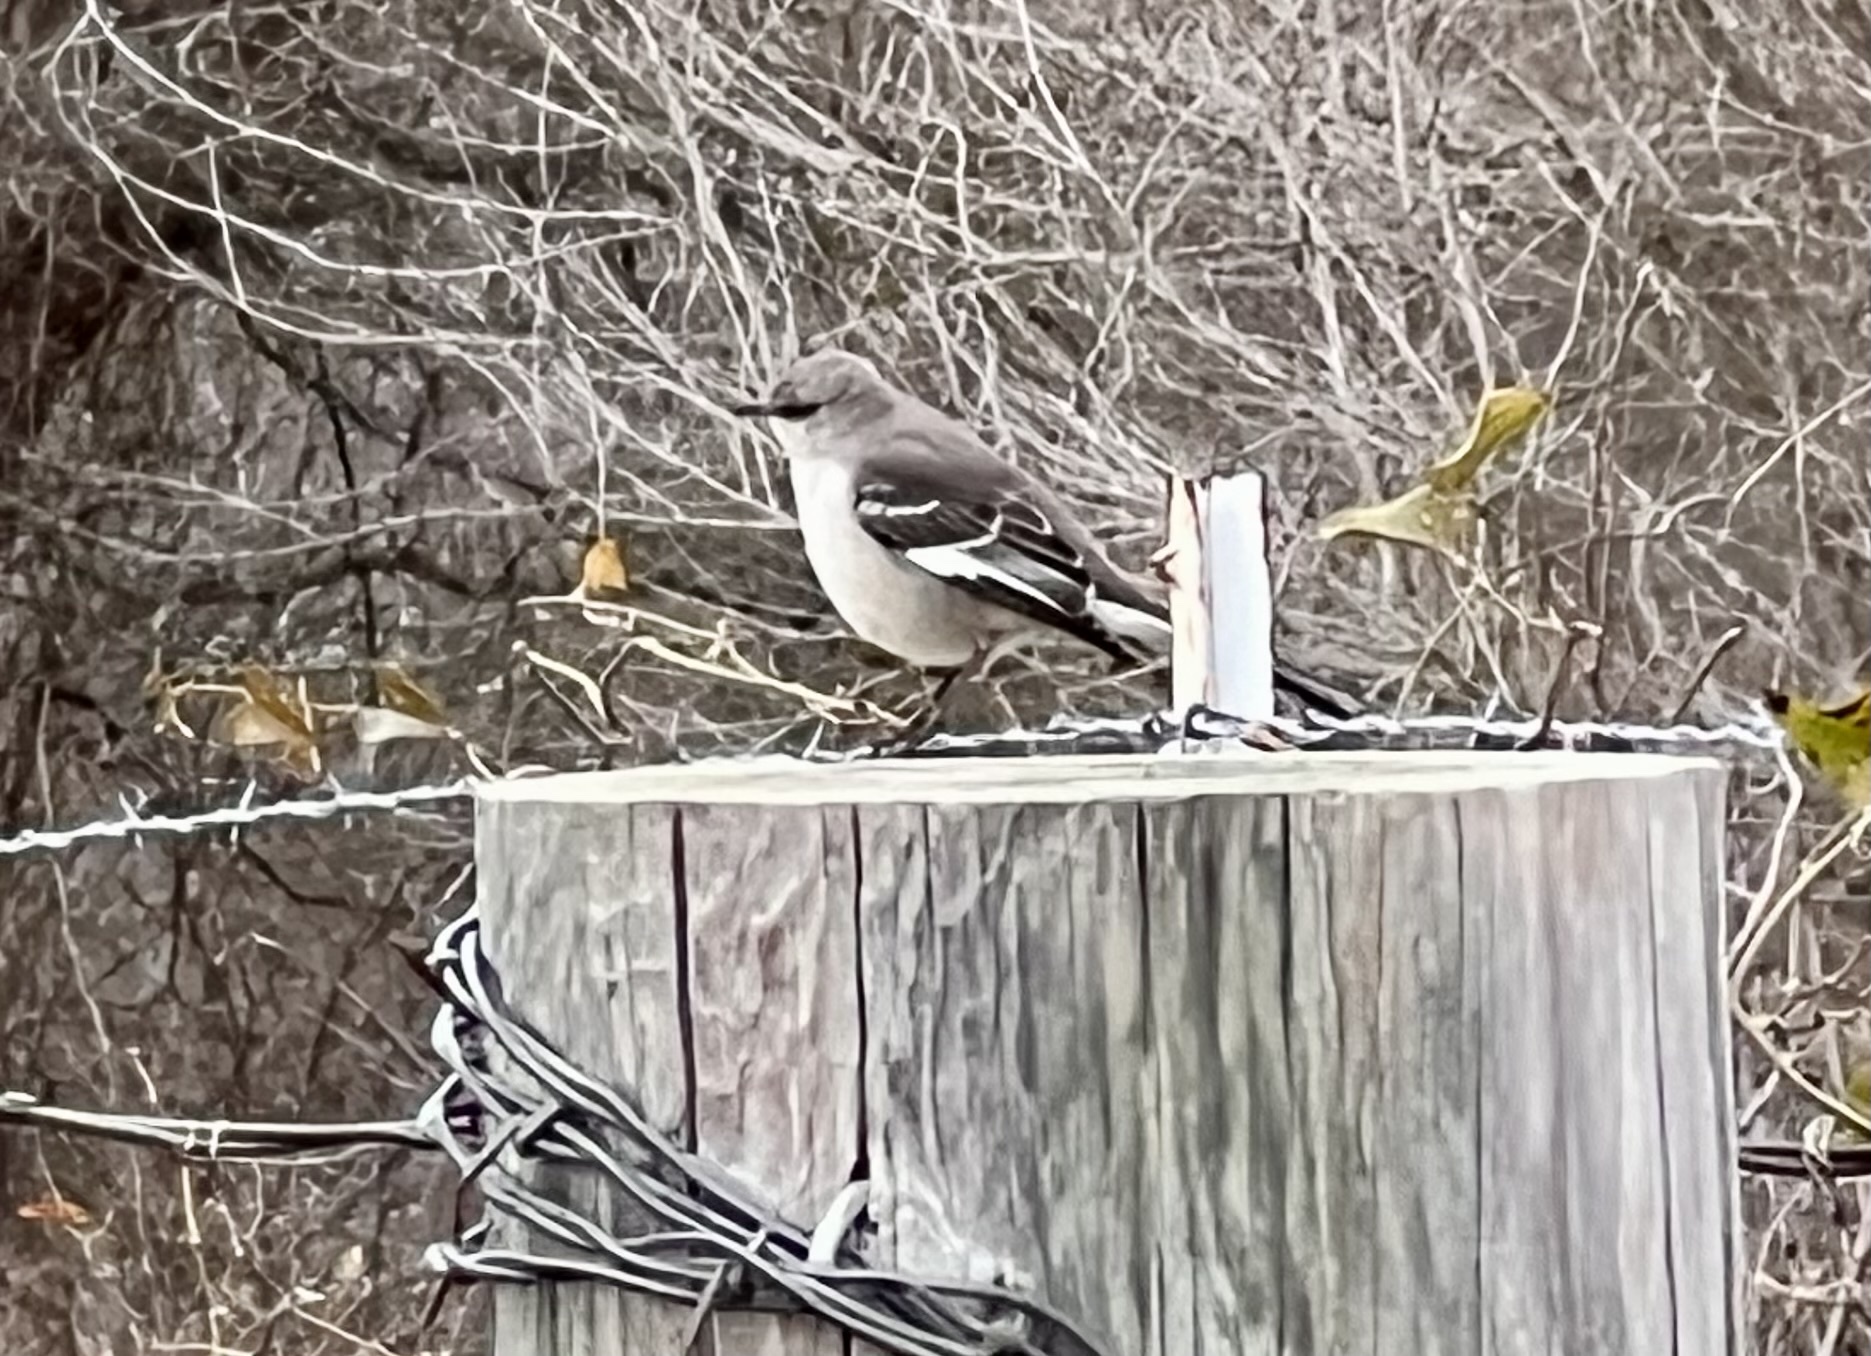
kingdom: Animalia
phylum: Chordata
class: Aves
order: Passeriformes
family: Mimidae
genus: Mimus
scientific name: Mimus polyglottos
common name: Northern mockingbird
